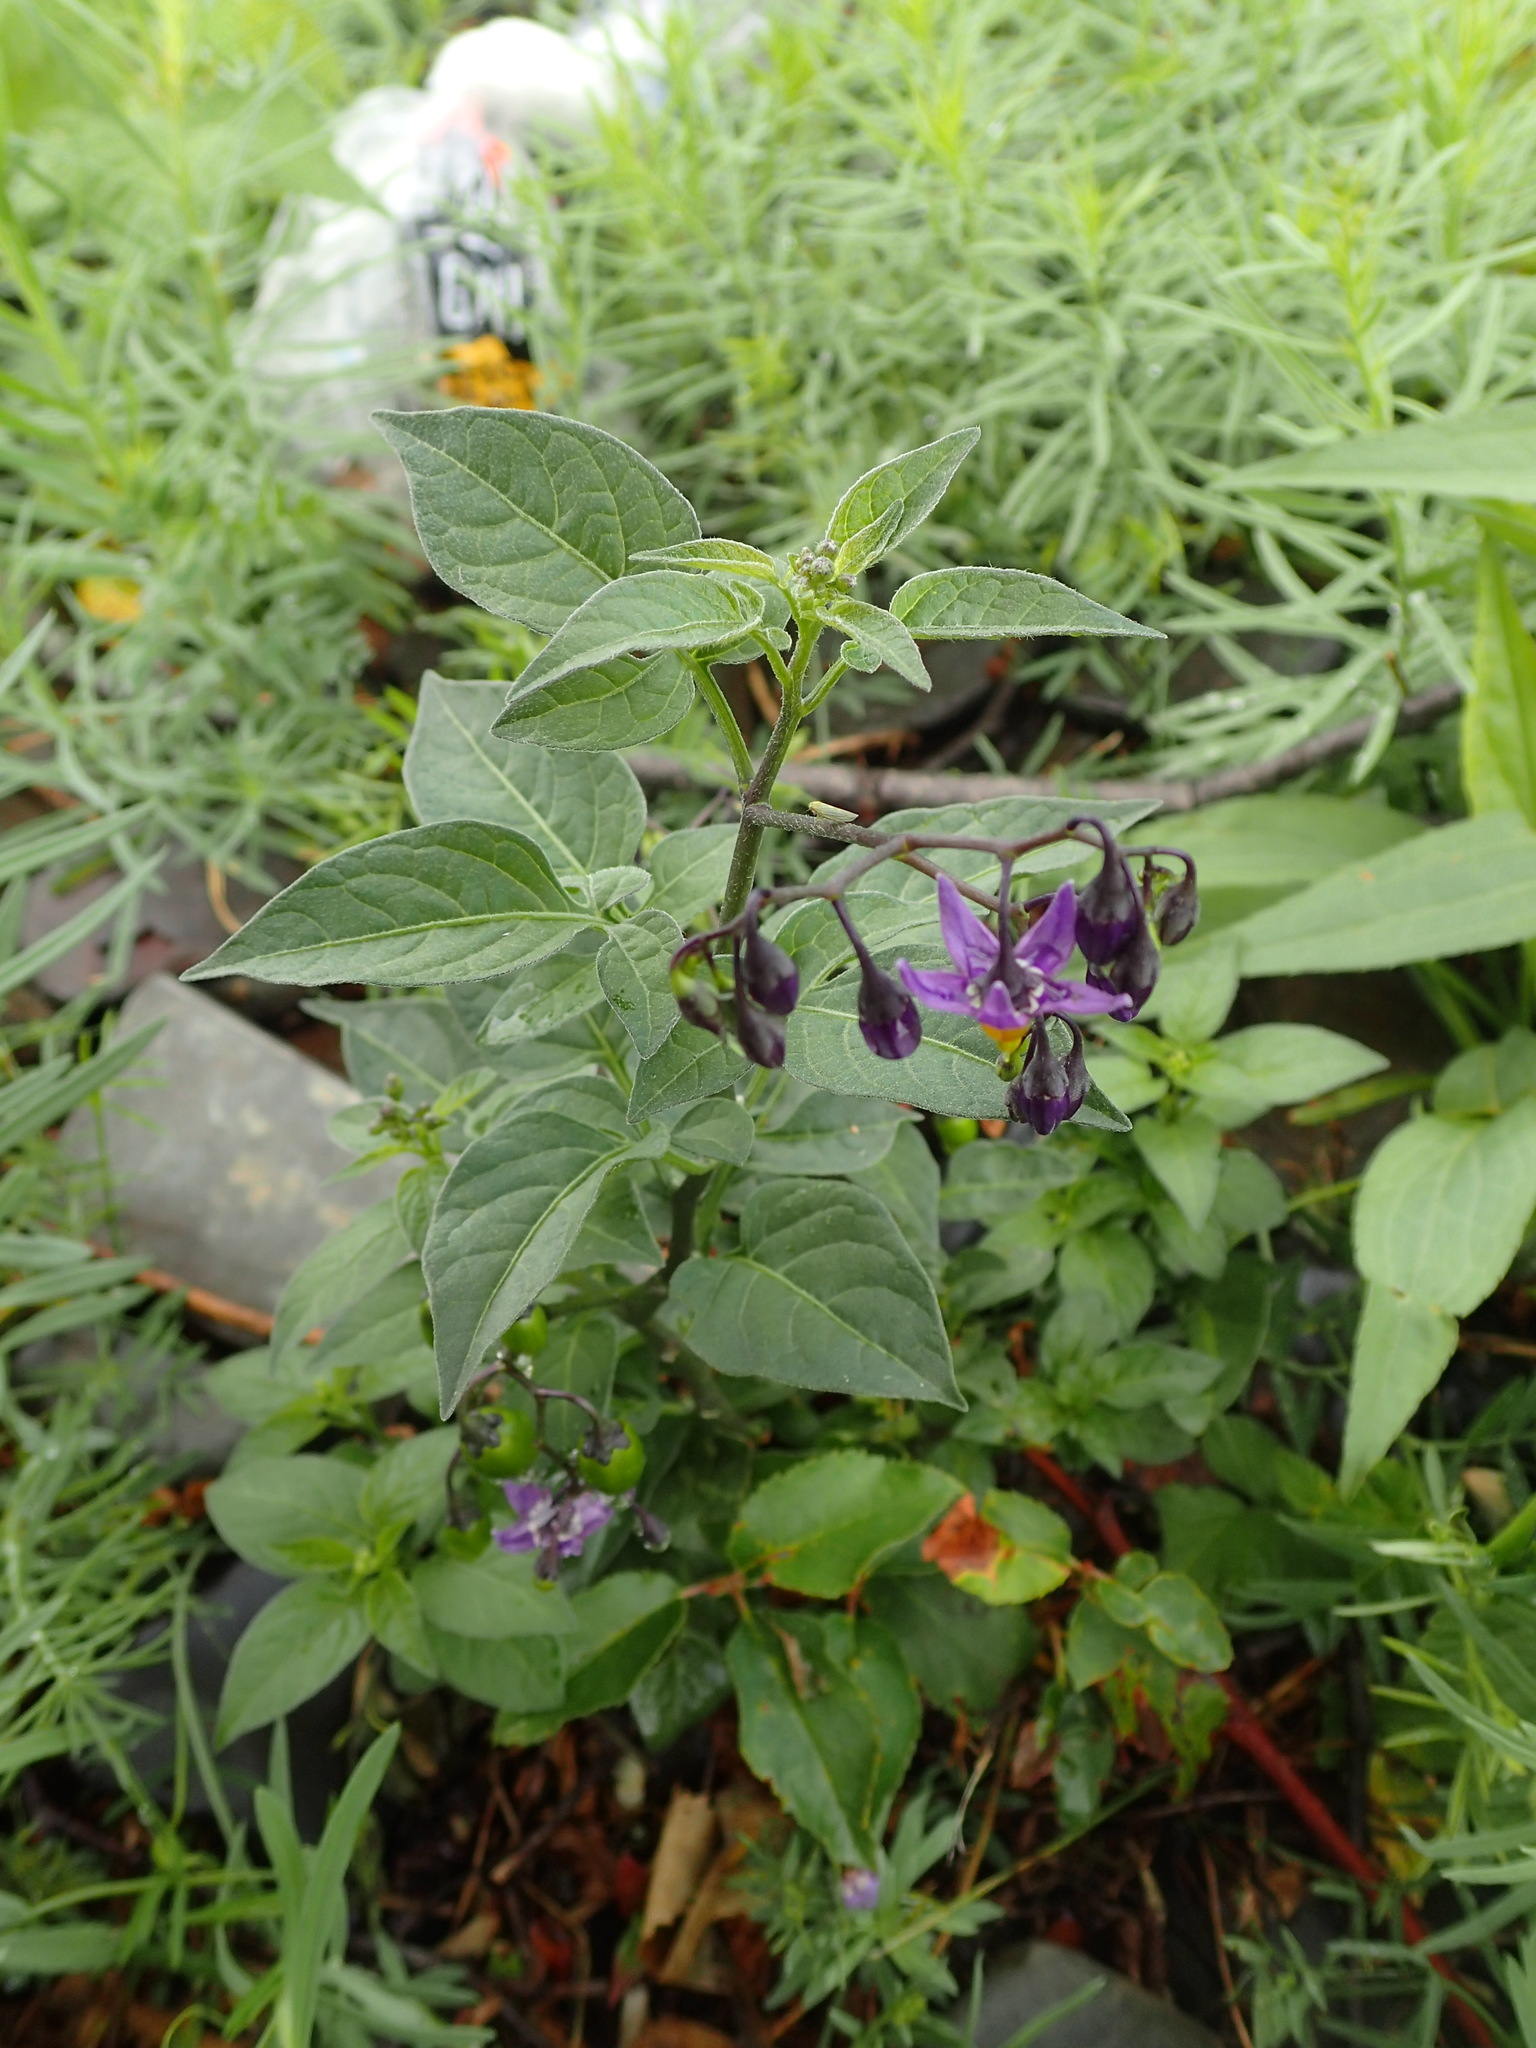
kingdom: Plantae
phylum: Tracheophyta
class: Magnoliopsida
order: Solanales
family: Solanaceae
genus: Solanum
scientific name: Solanum dulcamara
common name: Climbing nightshade
